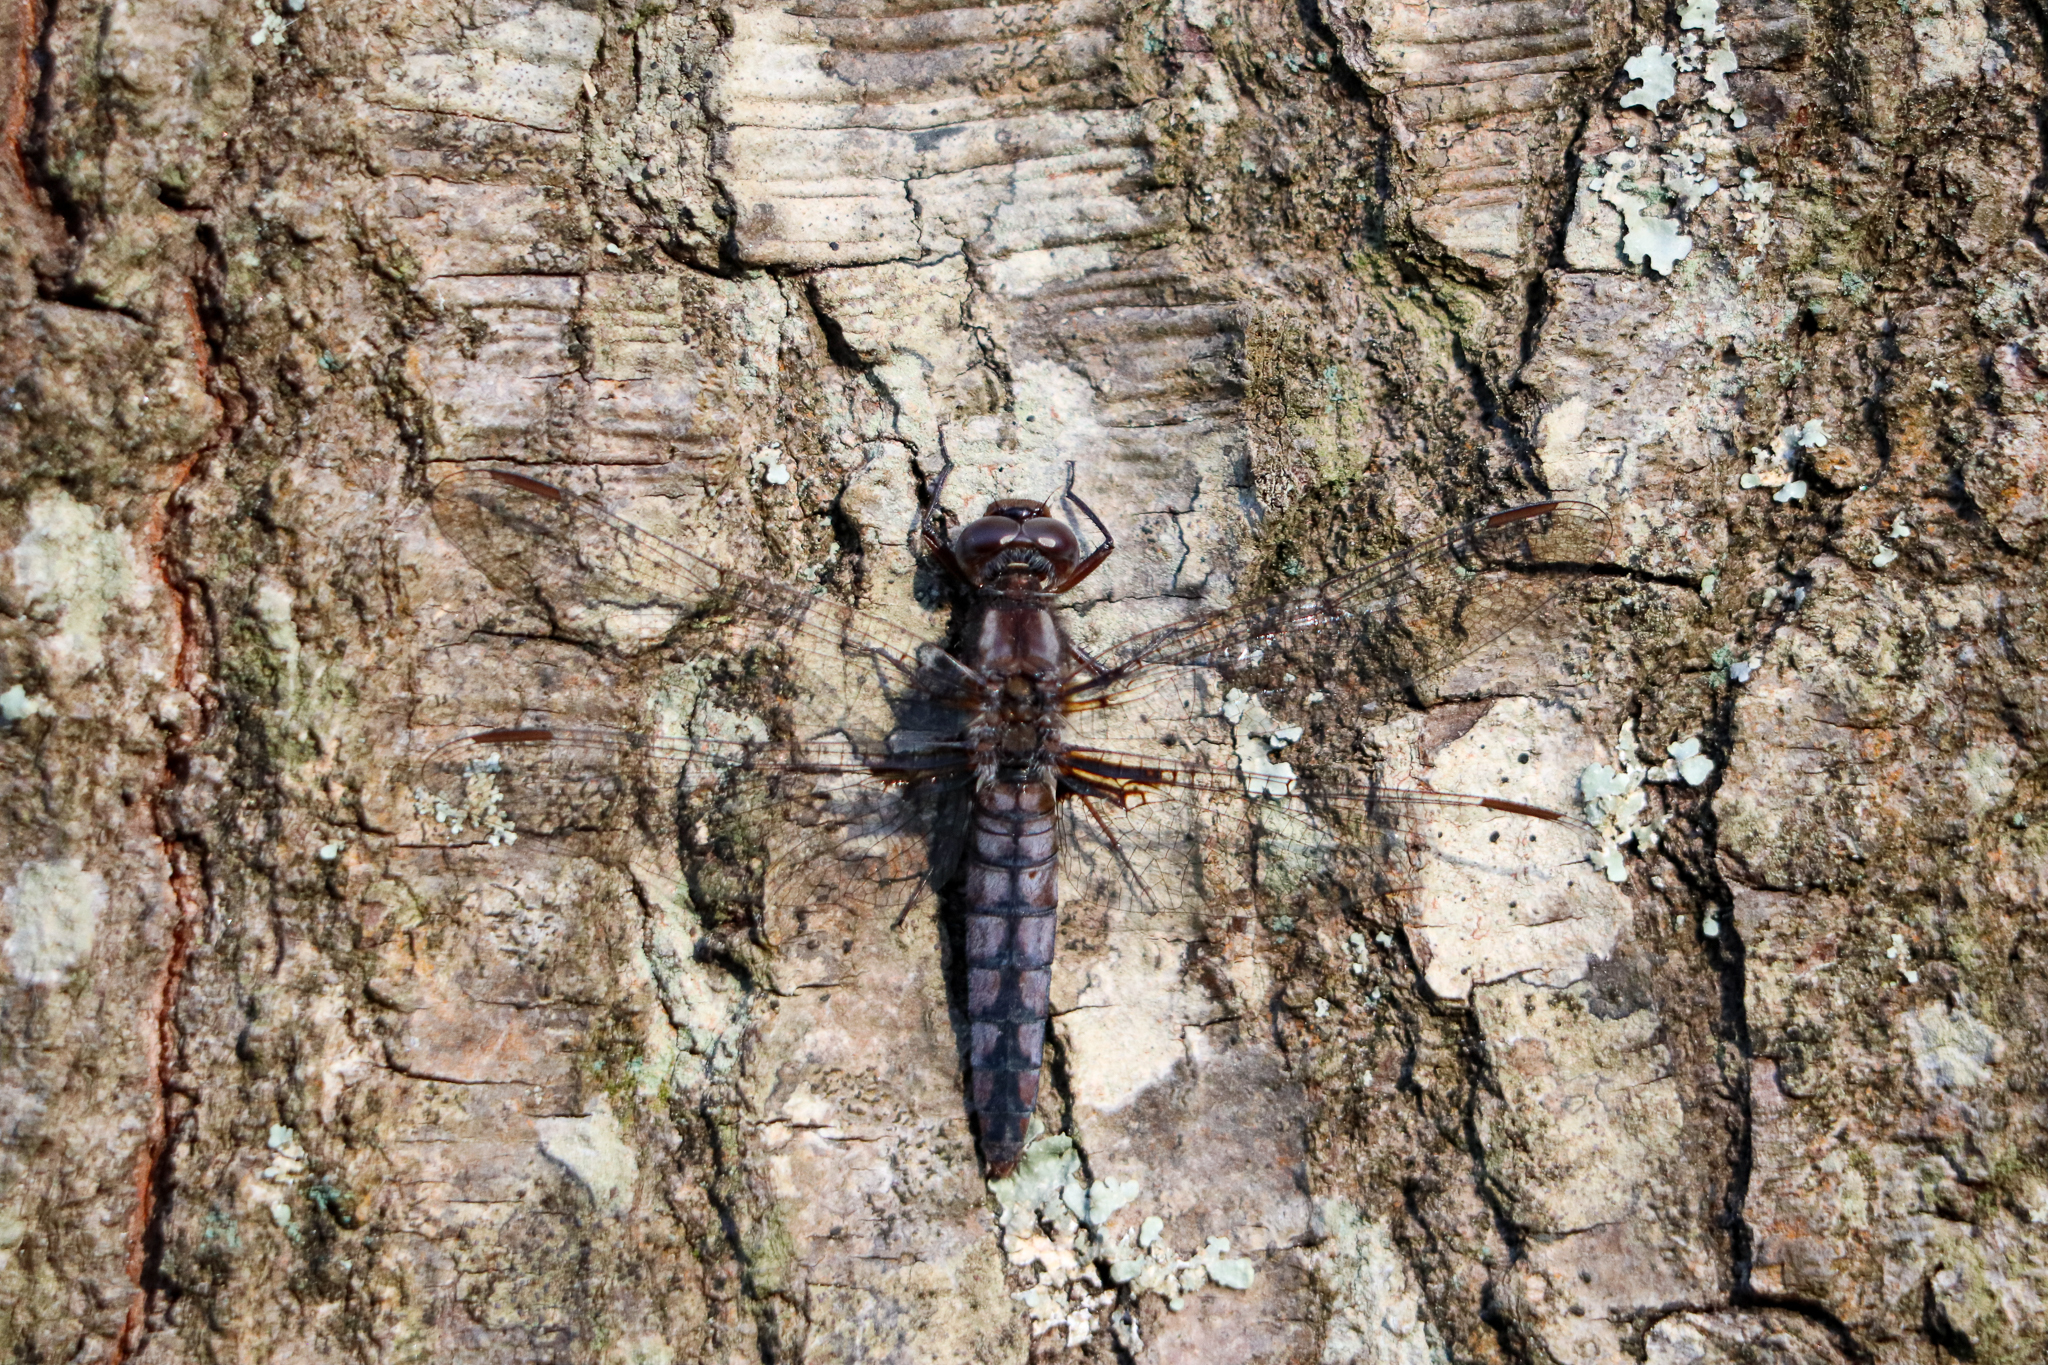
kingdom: Animalia
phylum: Arthropoda
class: Insecta
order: Odonata
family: Libellulidae
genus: Ladona
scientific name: Ladona deplanata
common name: Blue corporal
